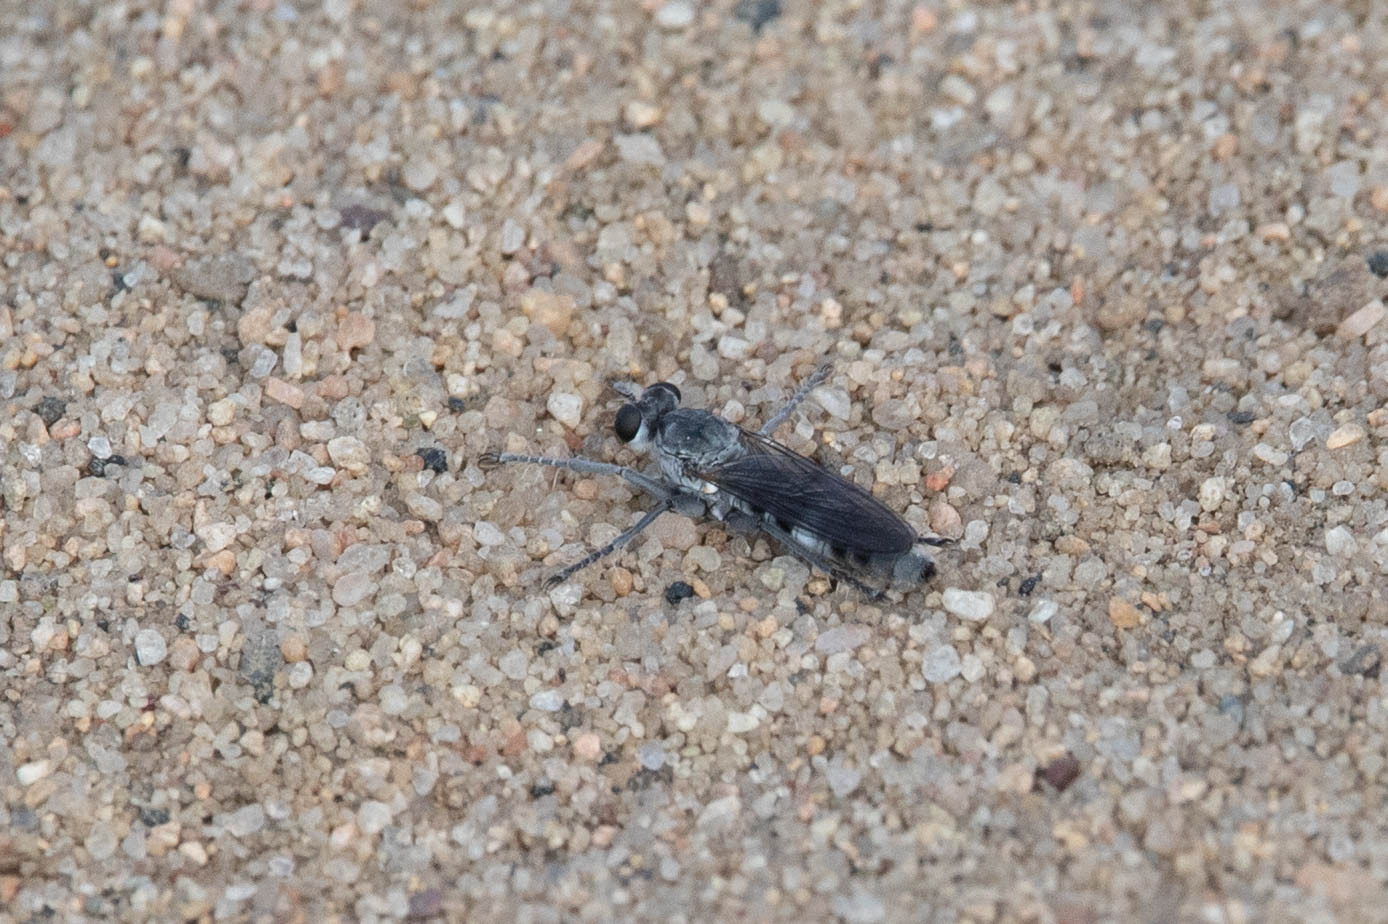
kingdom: Animalia
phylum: Arthropoda
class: Insecta
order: Diptera
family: Asilidae
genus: Stichopogon
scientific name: Stichopogon trifasciatus
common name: Three-banded robber fly
